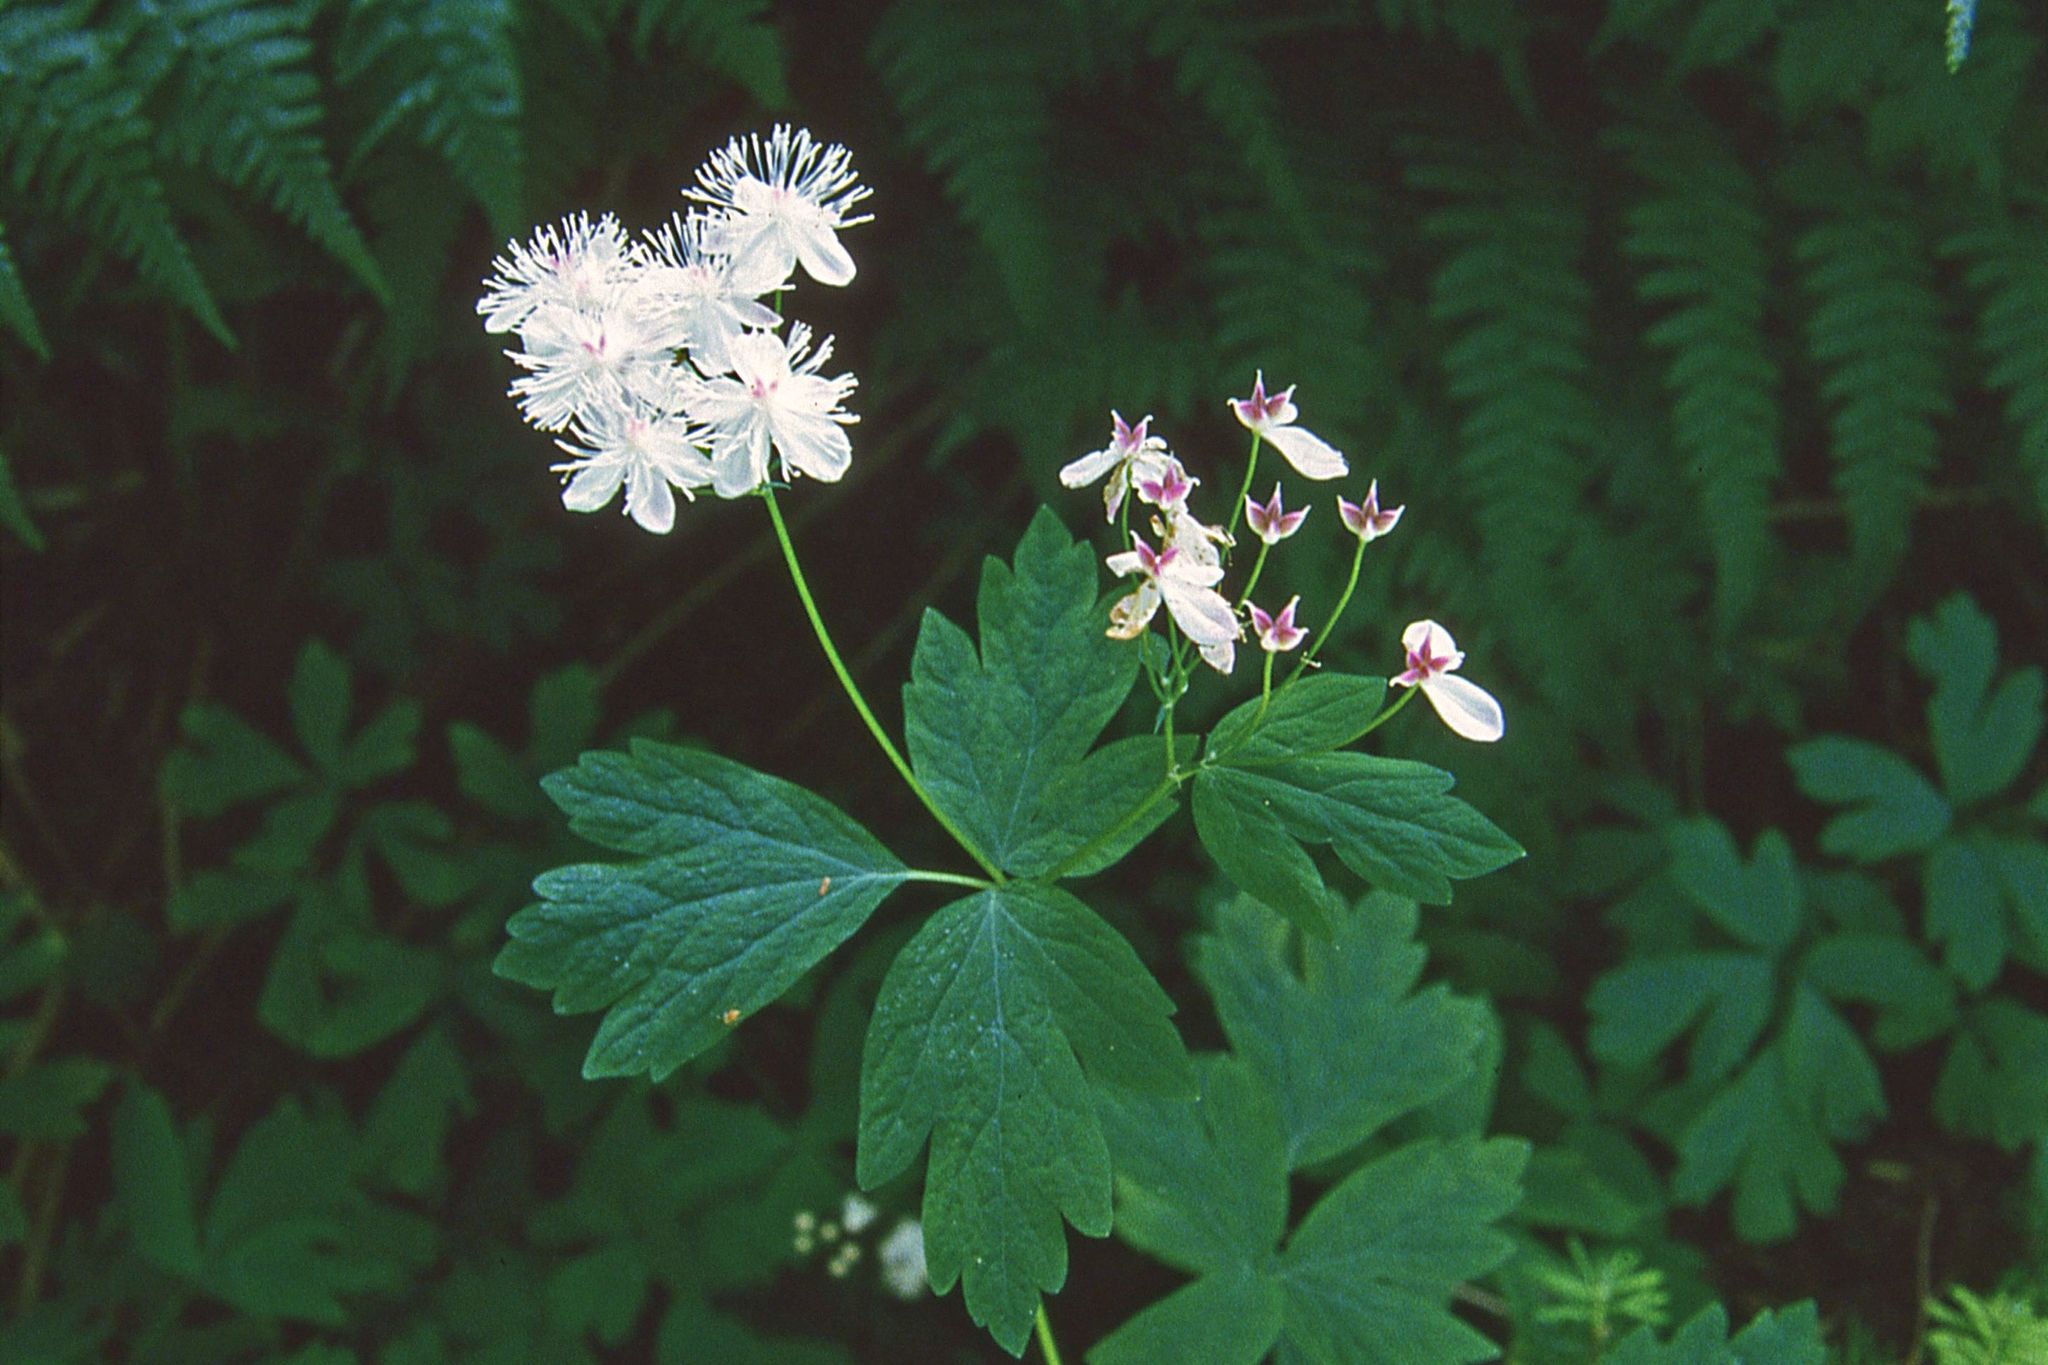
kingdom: Plantae
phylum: Tracheophyta
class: Magnoliopsida
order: Ranunculales
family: Ranunculaceae
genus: Enemion
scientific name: Enemion hallii
